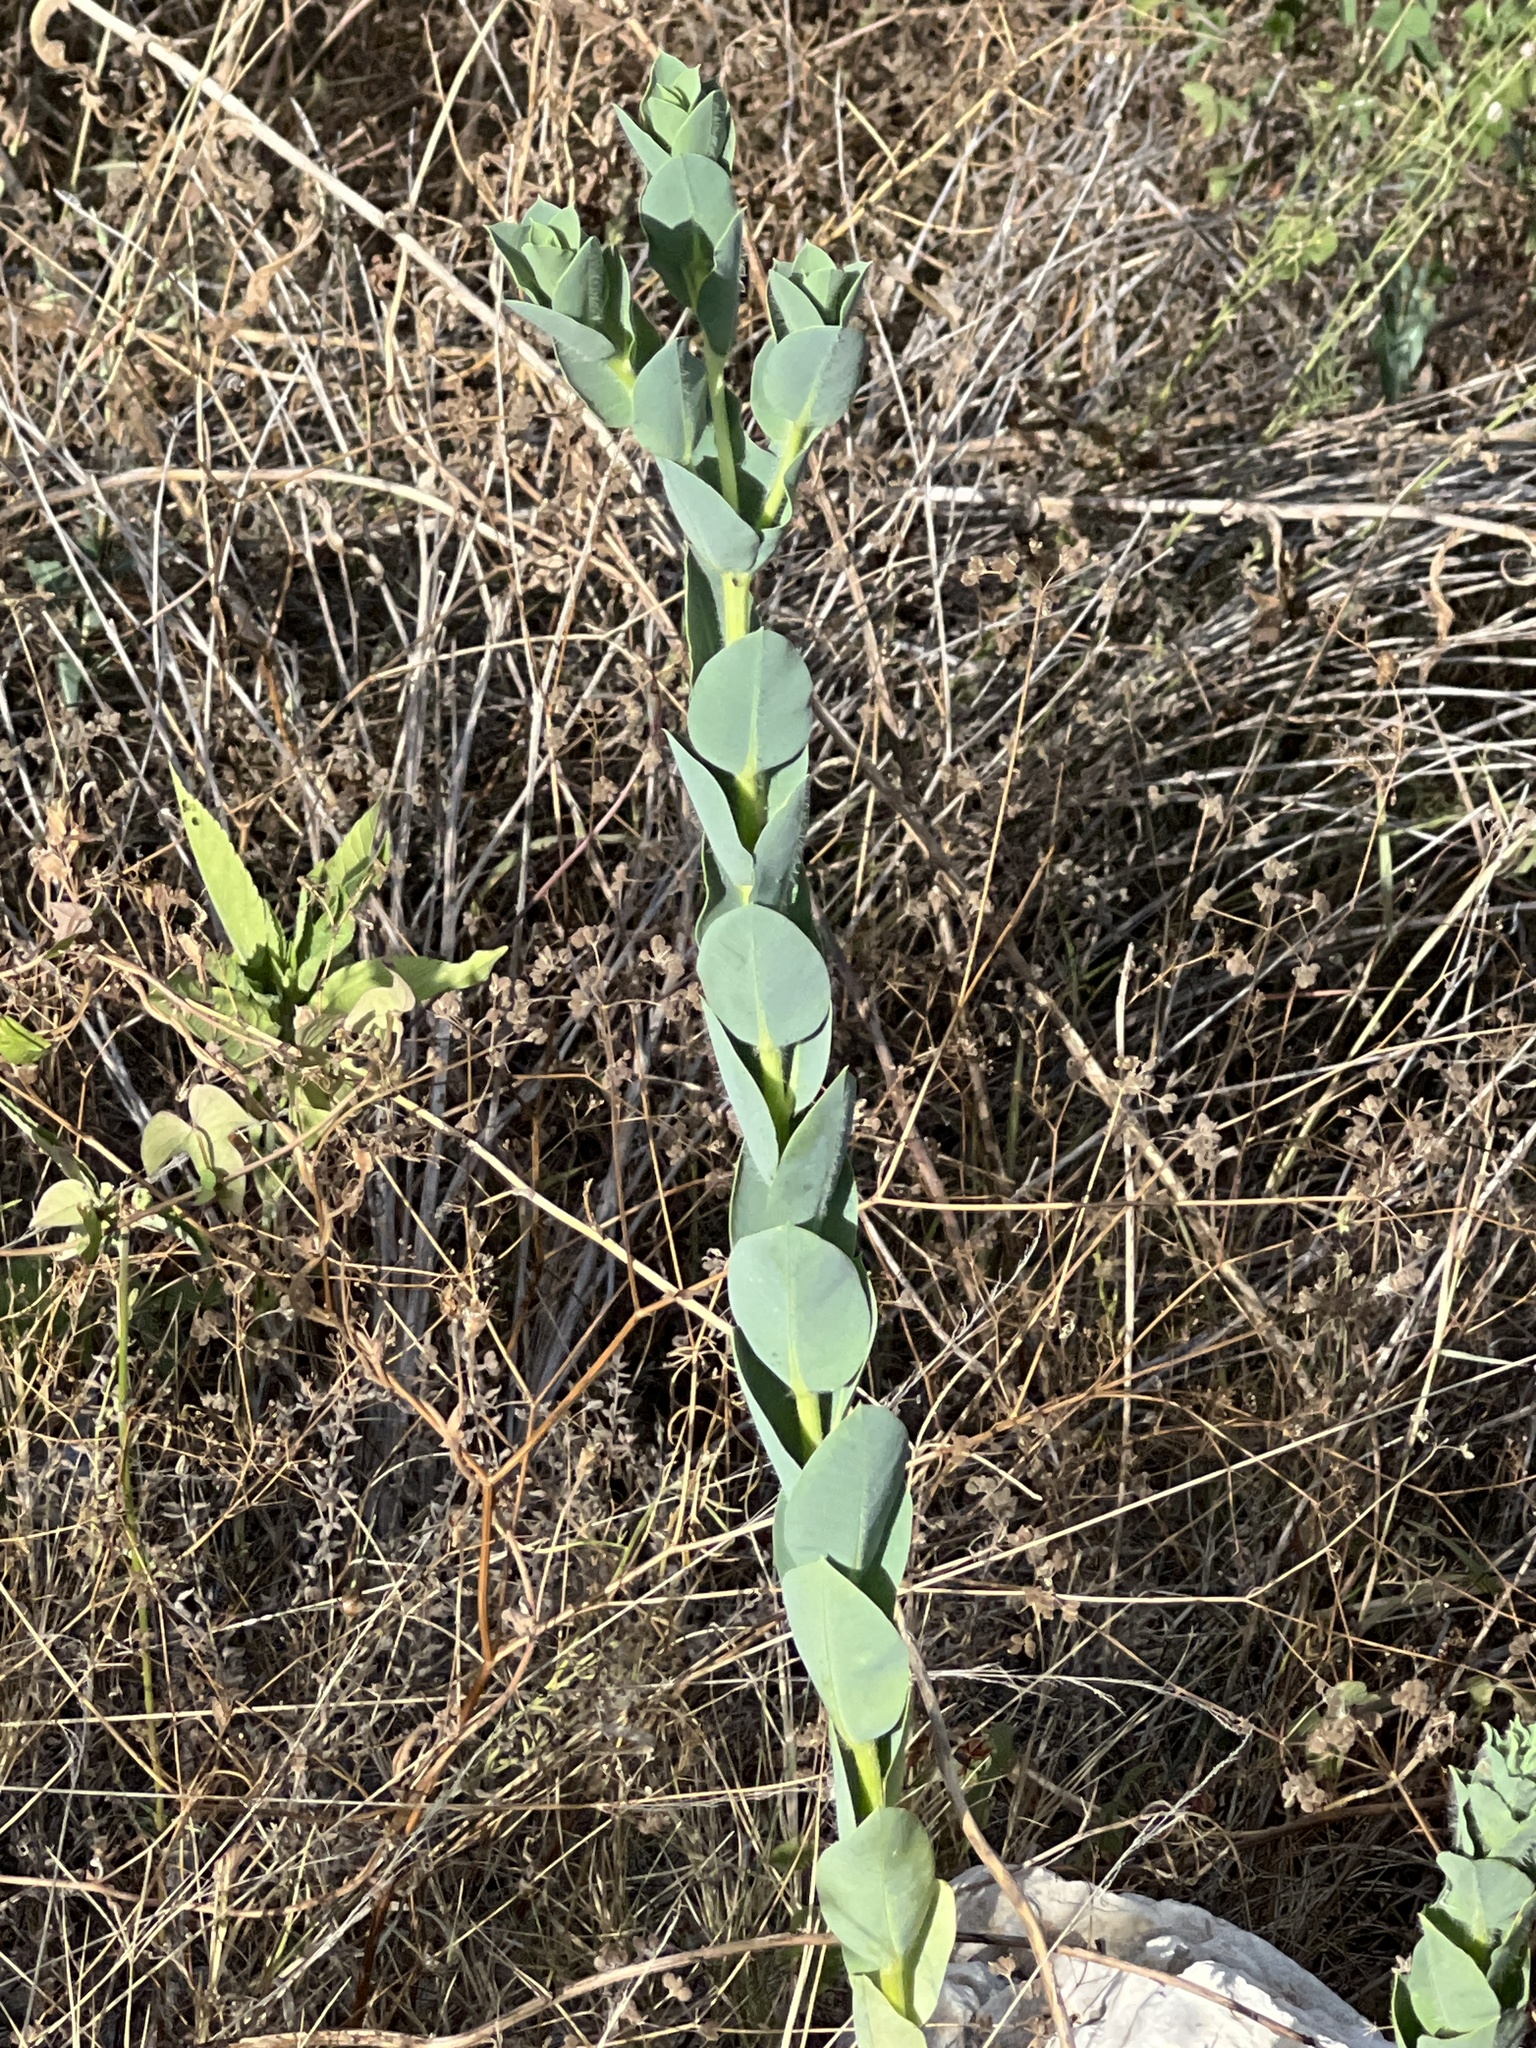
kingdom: Plantae
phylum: Tracheophyta
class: Magnoliopsida
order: Malpighiales
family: Euphorbiaceae
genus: Euphorbia
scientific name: Euphorbia marginata
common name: Ghostweed
